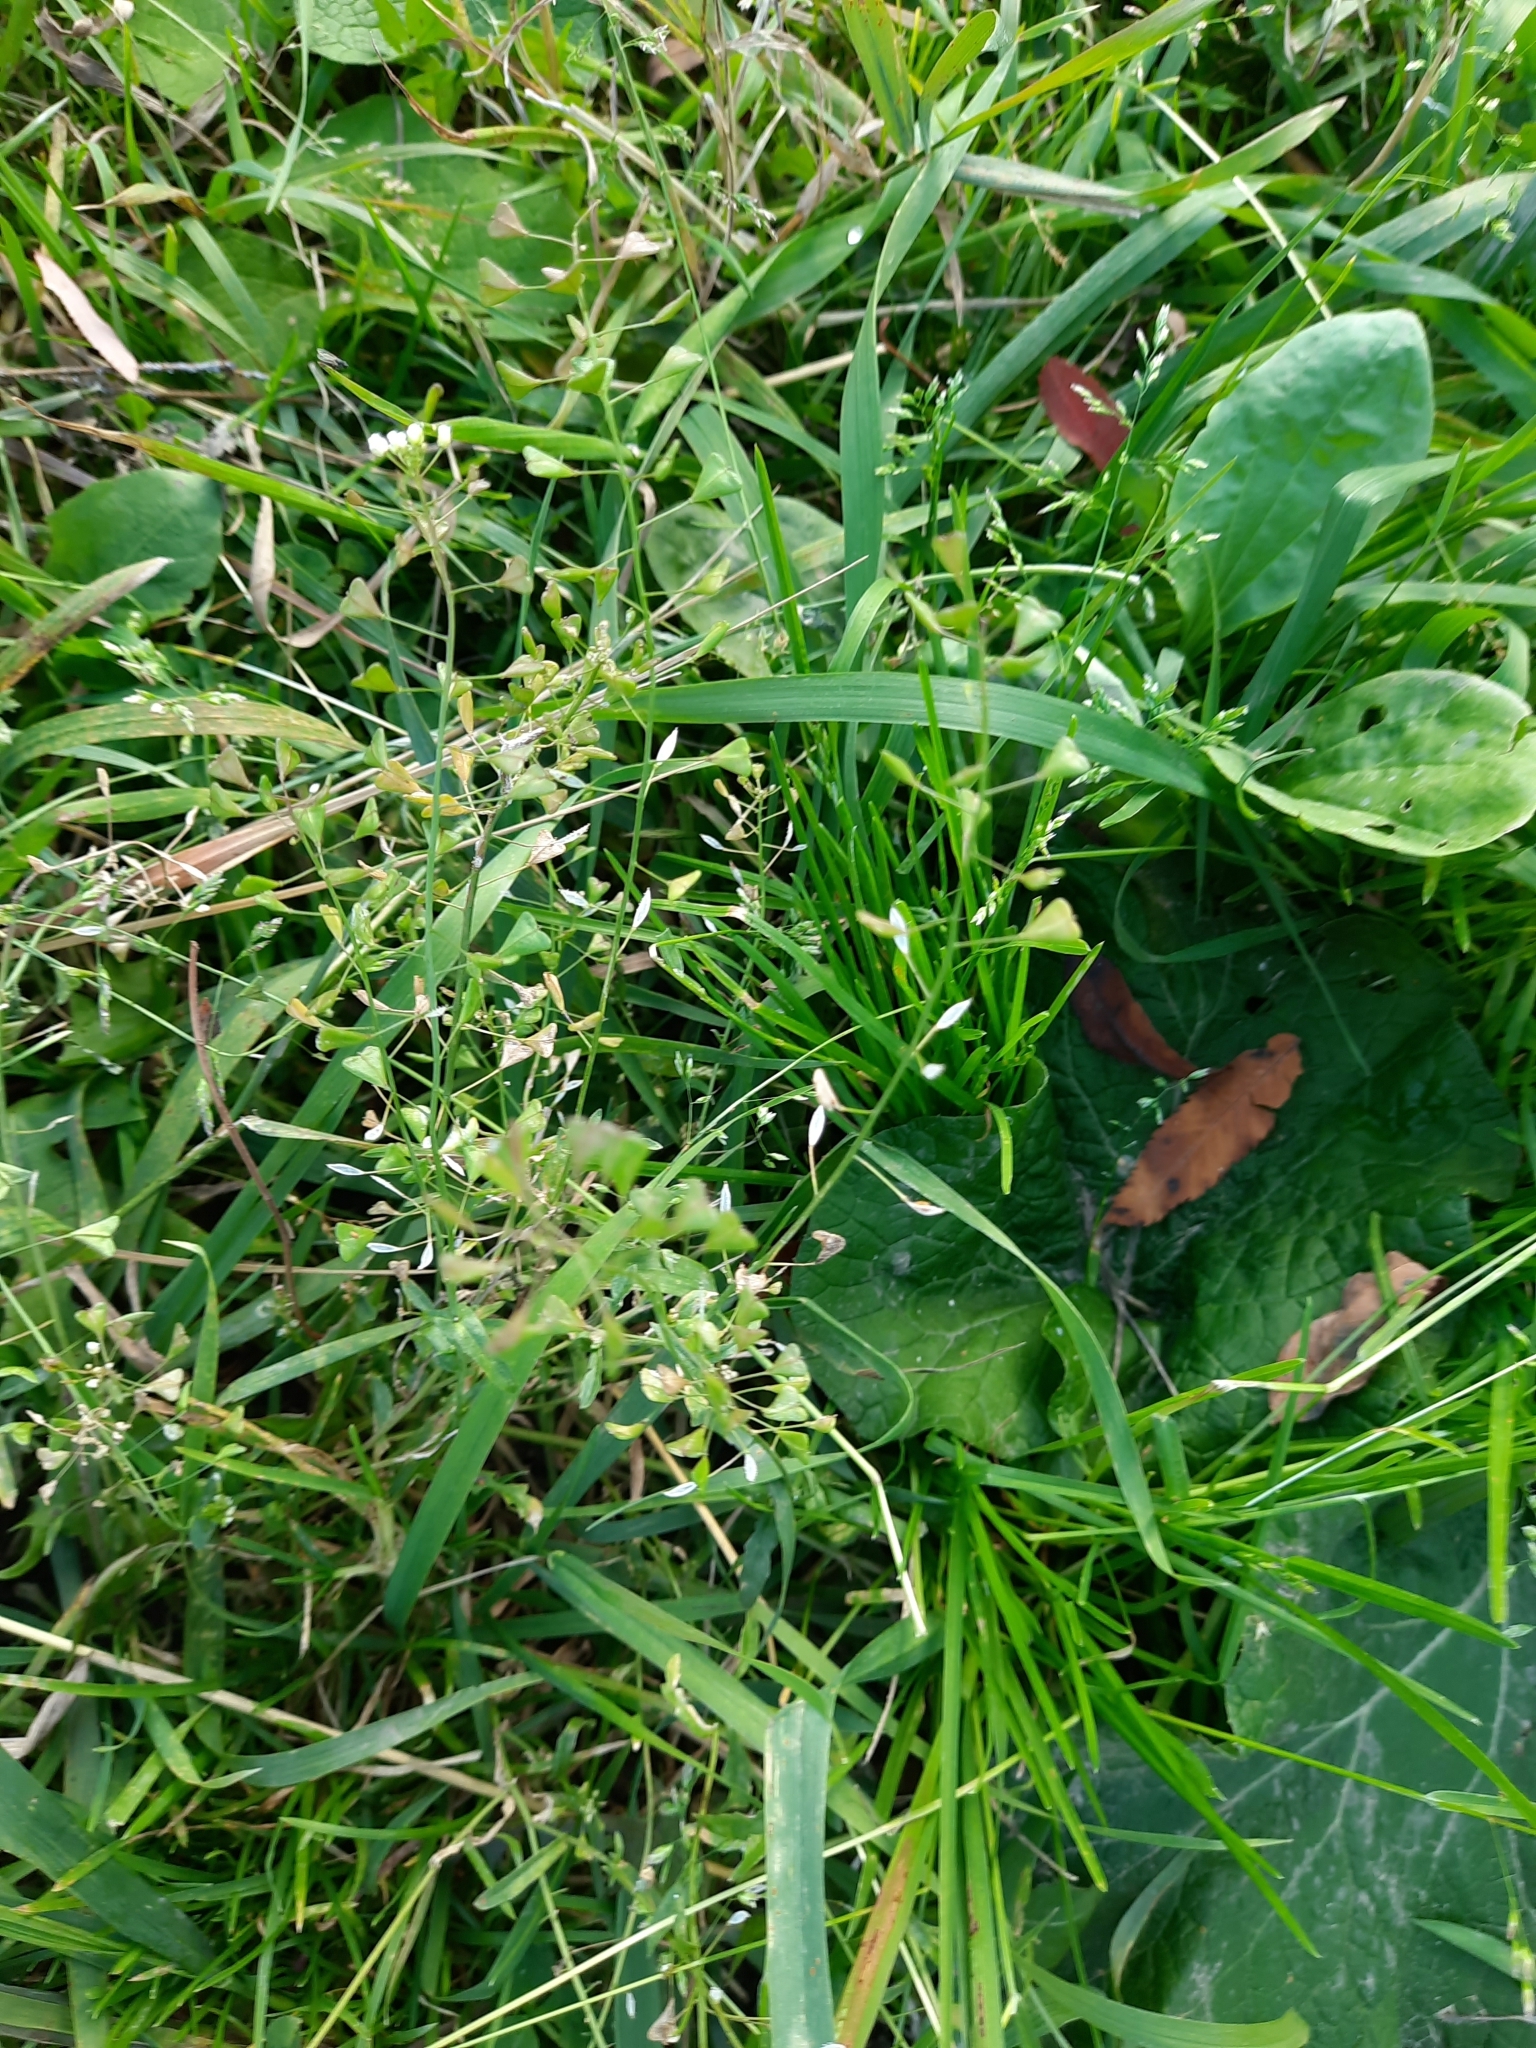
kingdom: Plantae
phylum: Tracheophyta
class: Magnoliopsida
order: Brassicales
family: Brassicaceae
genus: Capsella
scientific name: Capsella bursa-pastoris
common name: Shepherd's purse
